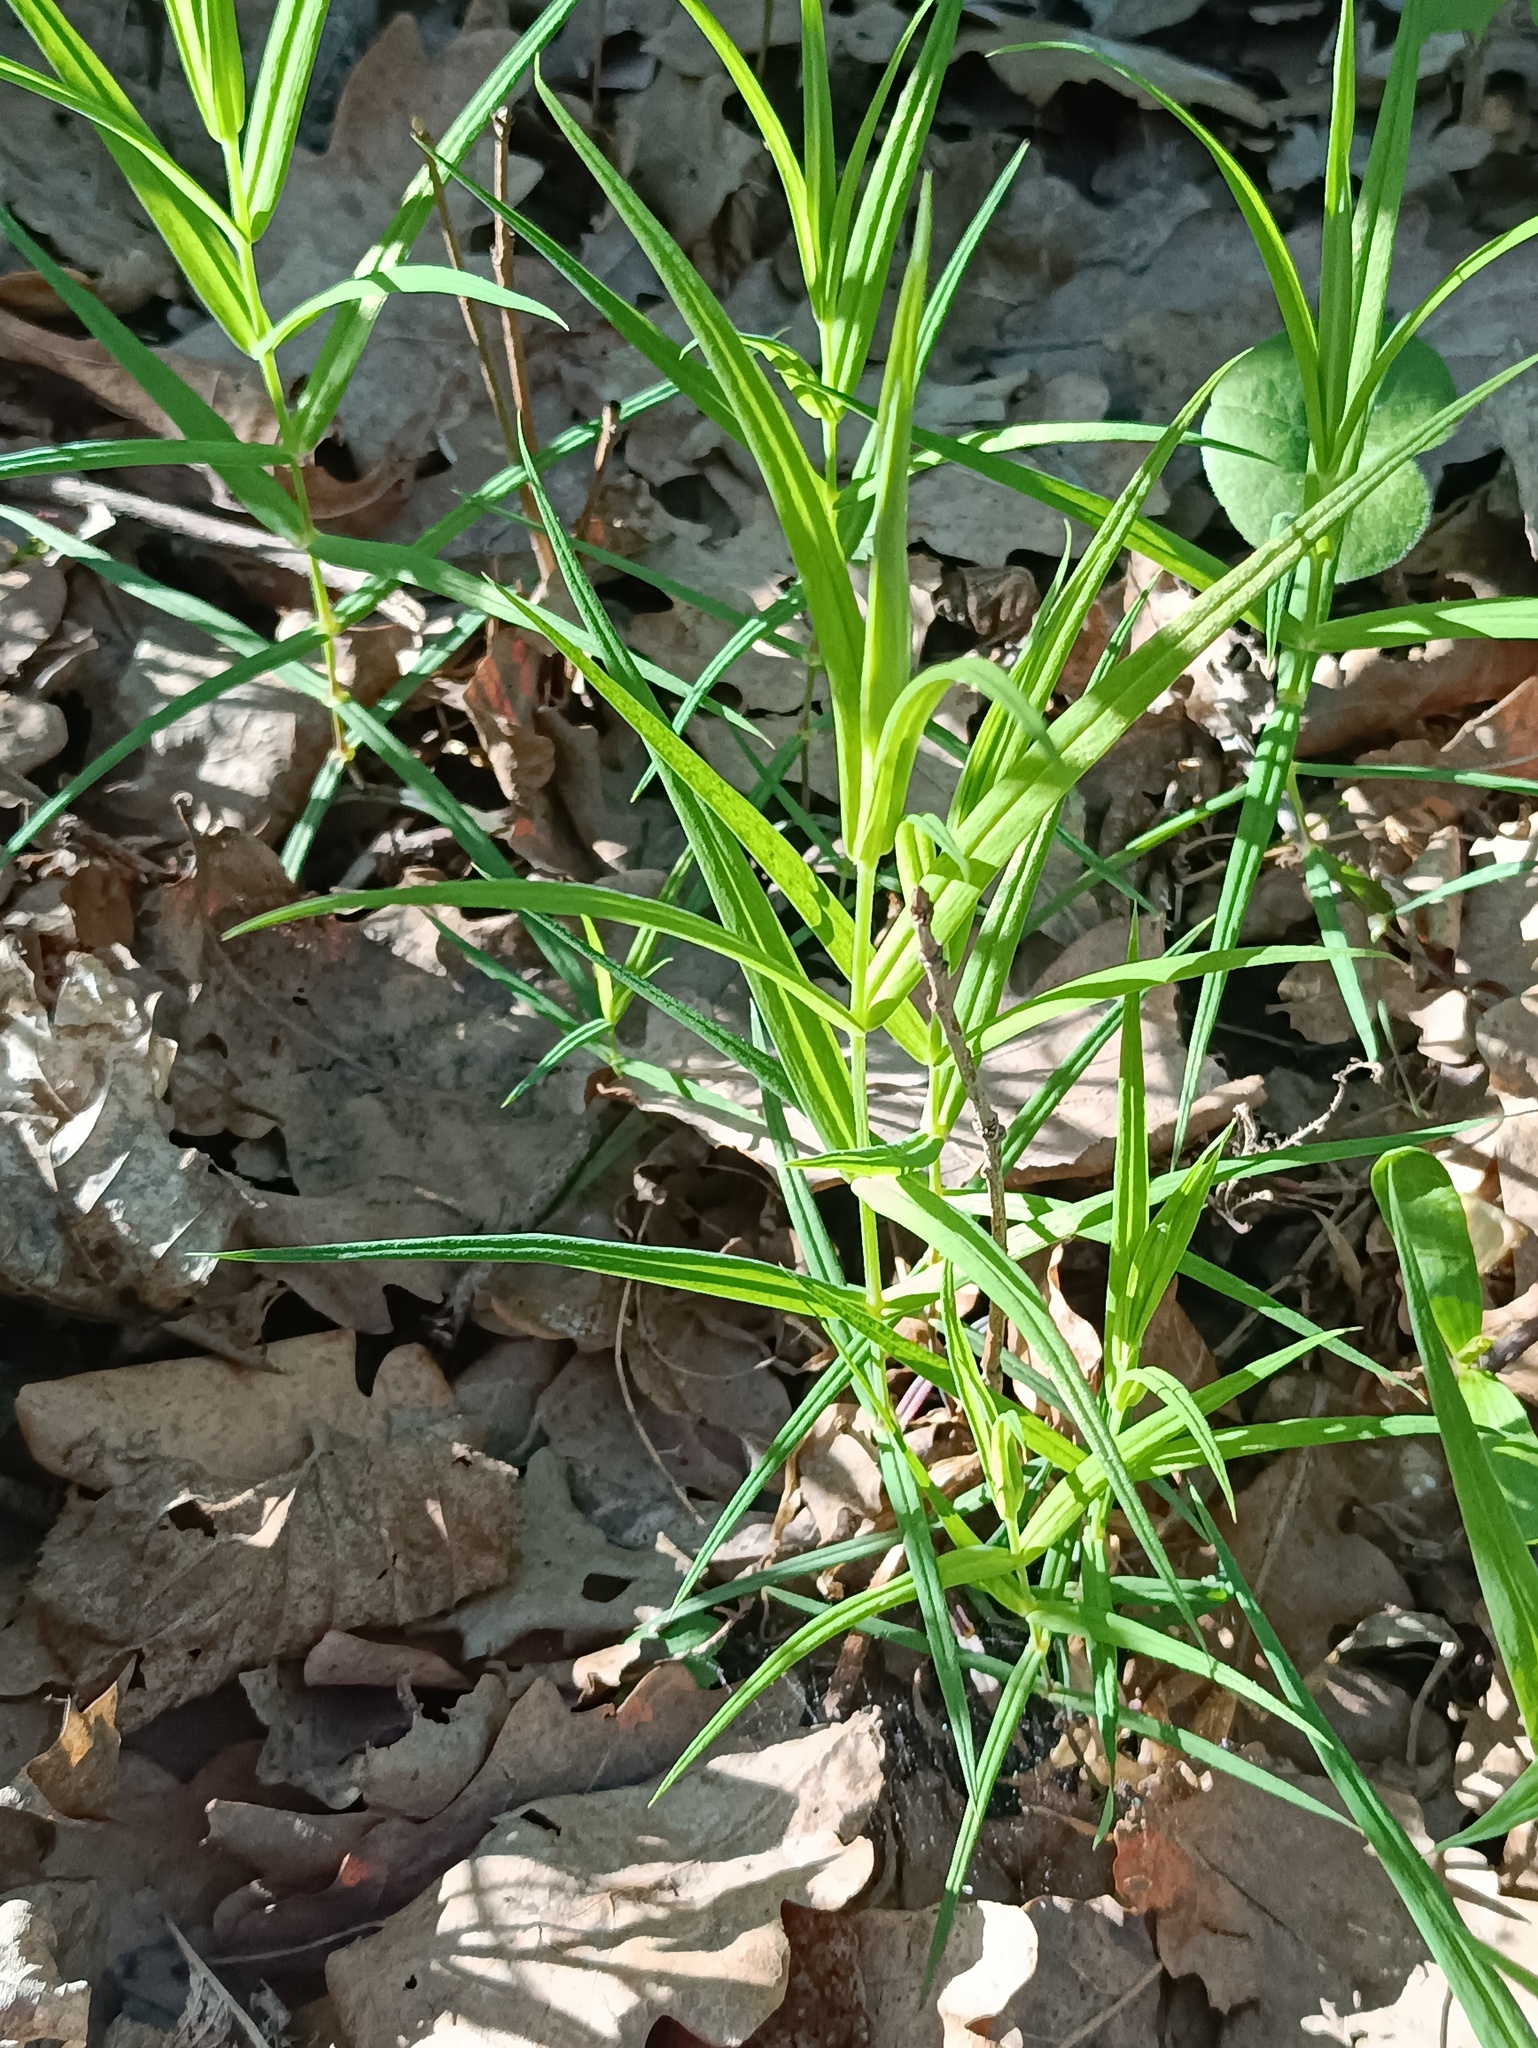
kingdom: Plantae
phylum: Tracheophyta
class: Magnoliopsida
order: Caryophyllales
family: Caryophyllaceae
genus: Rabelera
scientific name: Rabelera holostea
